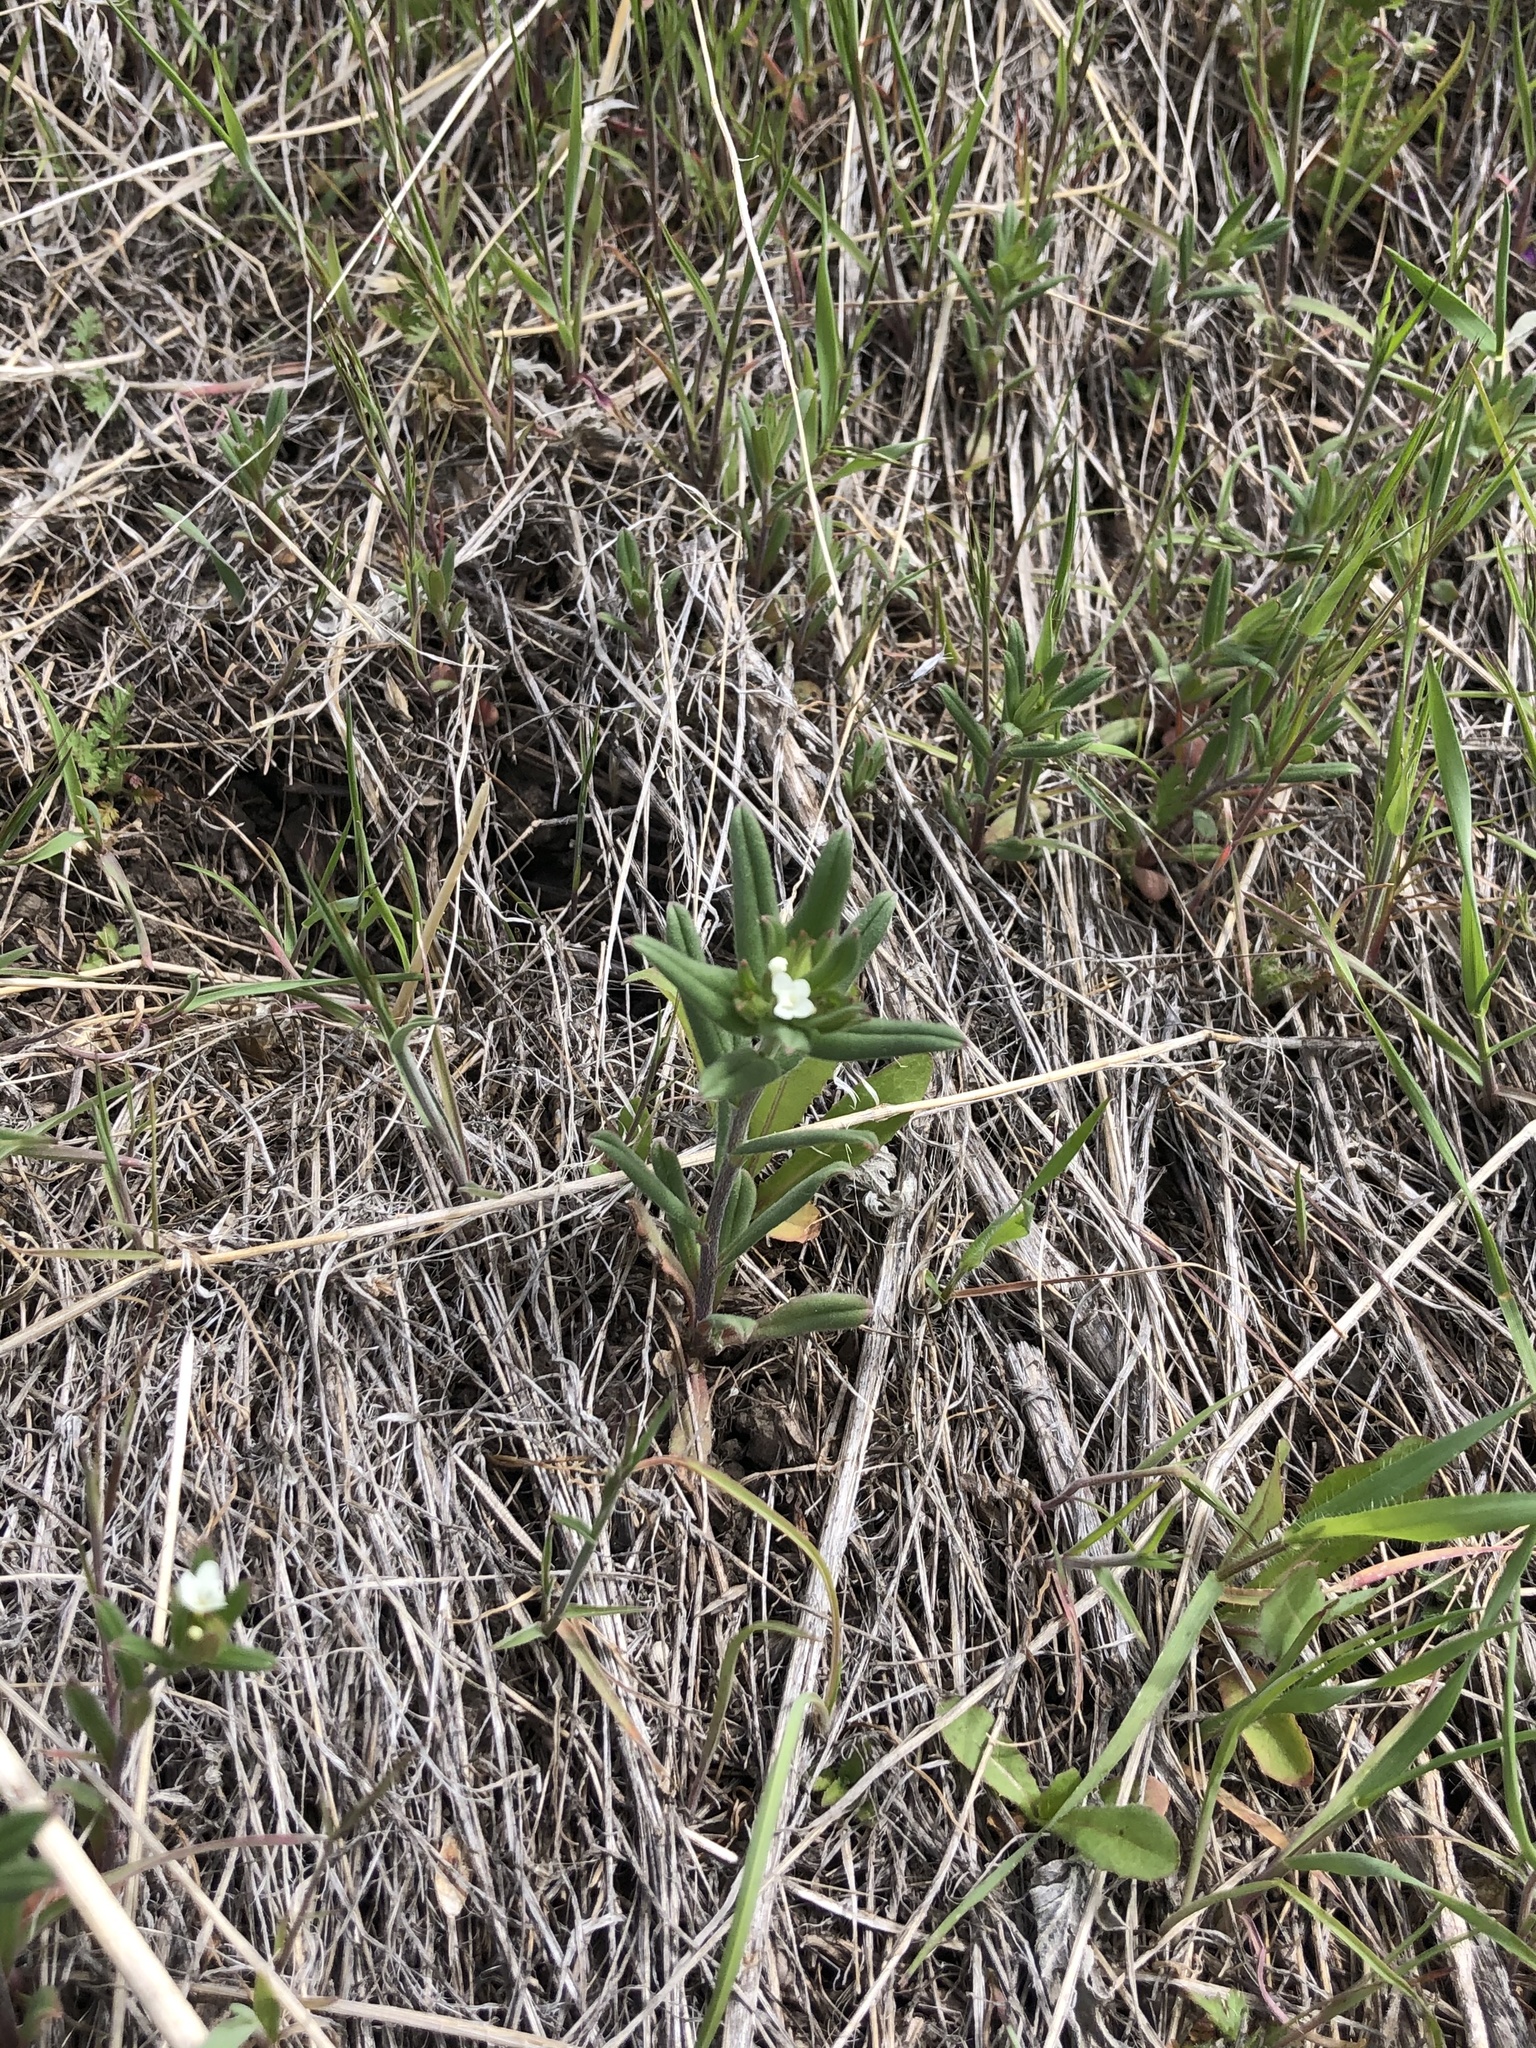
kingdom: Plantae
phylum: Tracheophyta
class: Magnoliopsida
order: Boraginales
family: Boraginaceae
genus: Buglossoides
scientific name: Buglossoides arvensis
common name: Corn gromwell
